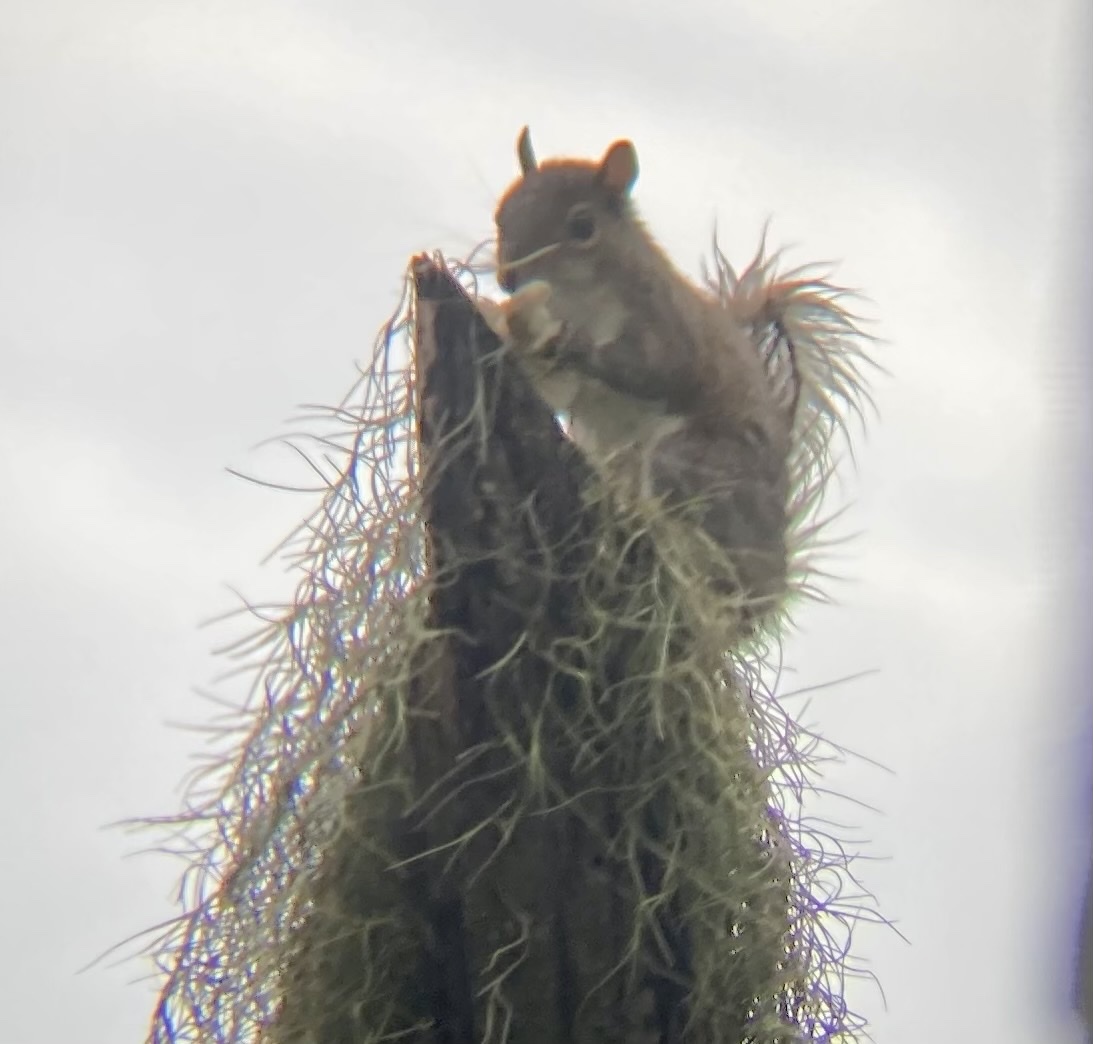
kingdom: Animalia
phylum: Chordata
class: Mammalia
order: Rodentia
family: Sciuridae
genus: Sciurus
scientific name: Sciurus carolinensis
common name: Eastern gray squirrel
